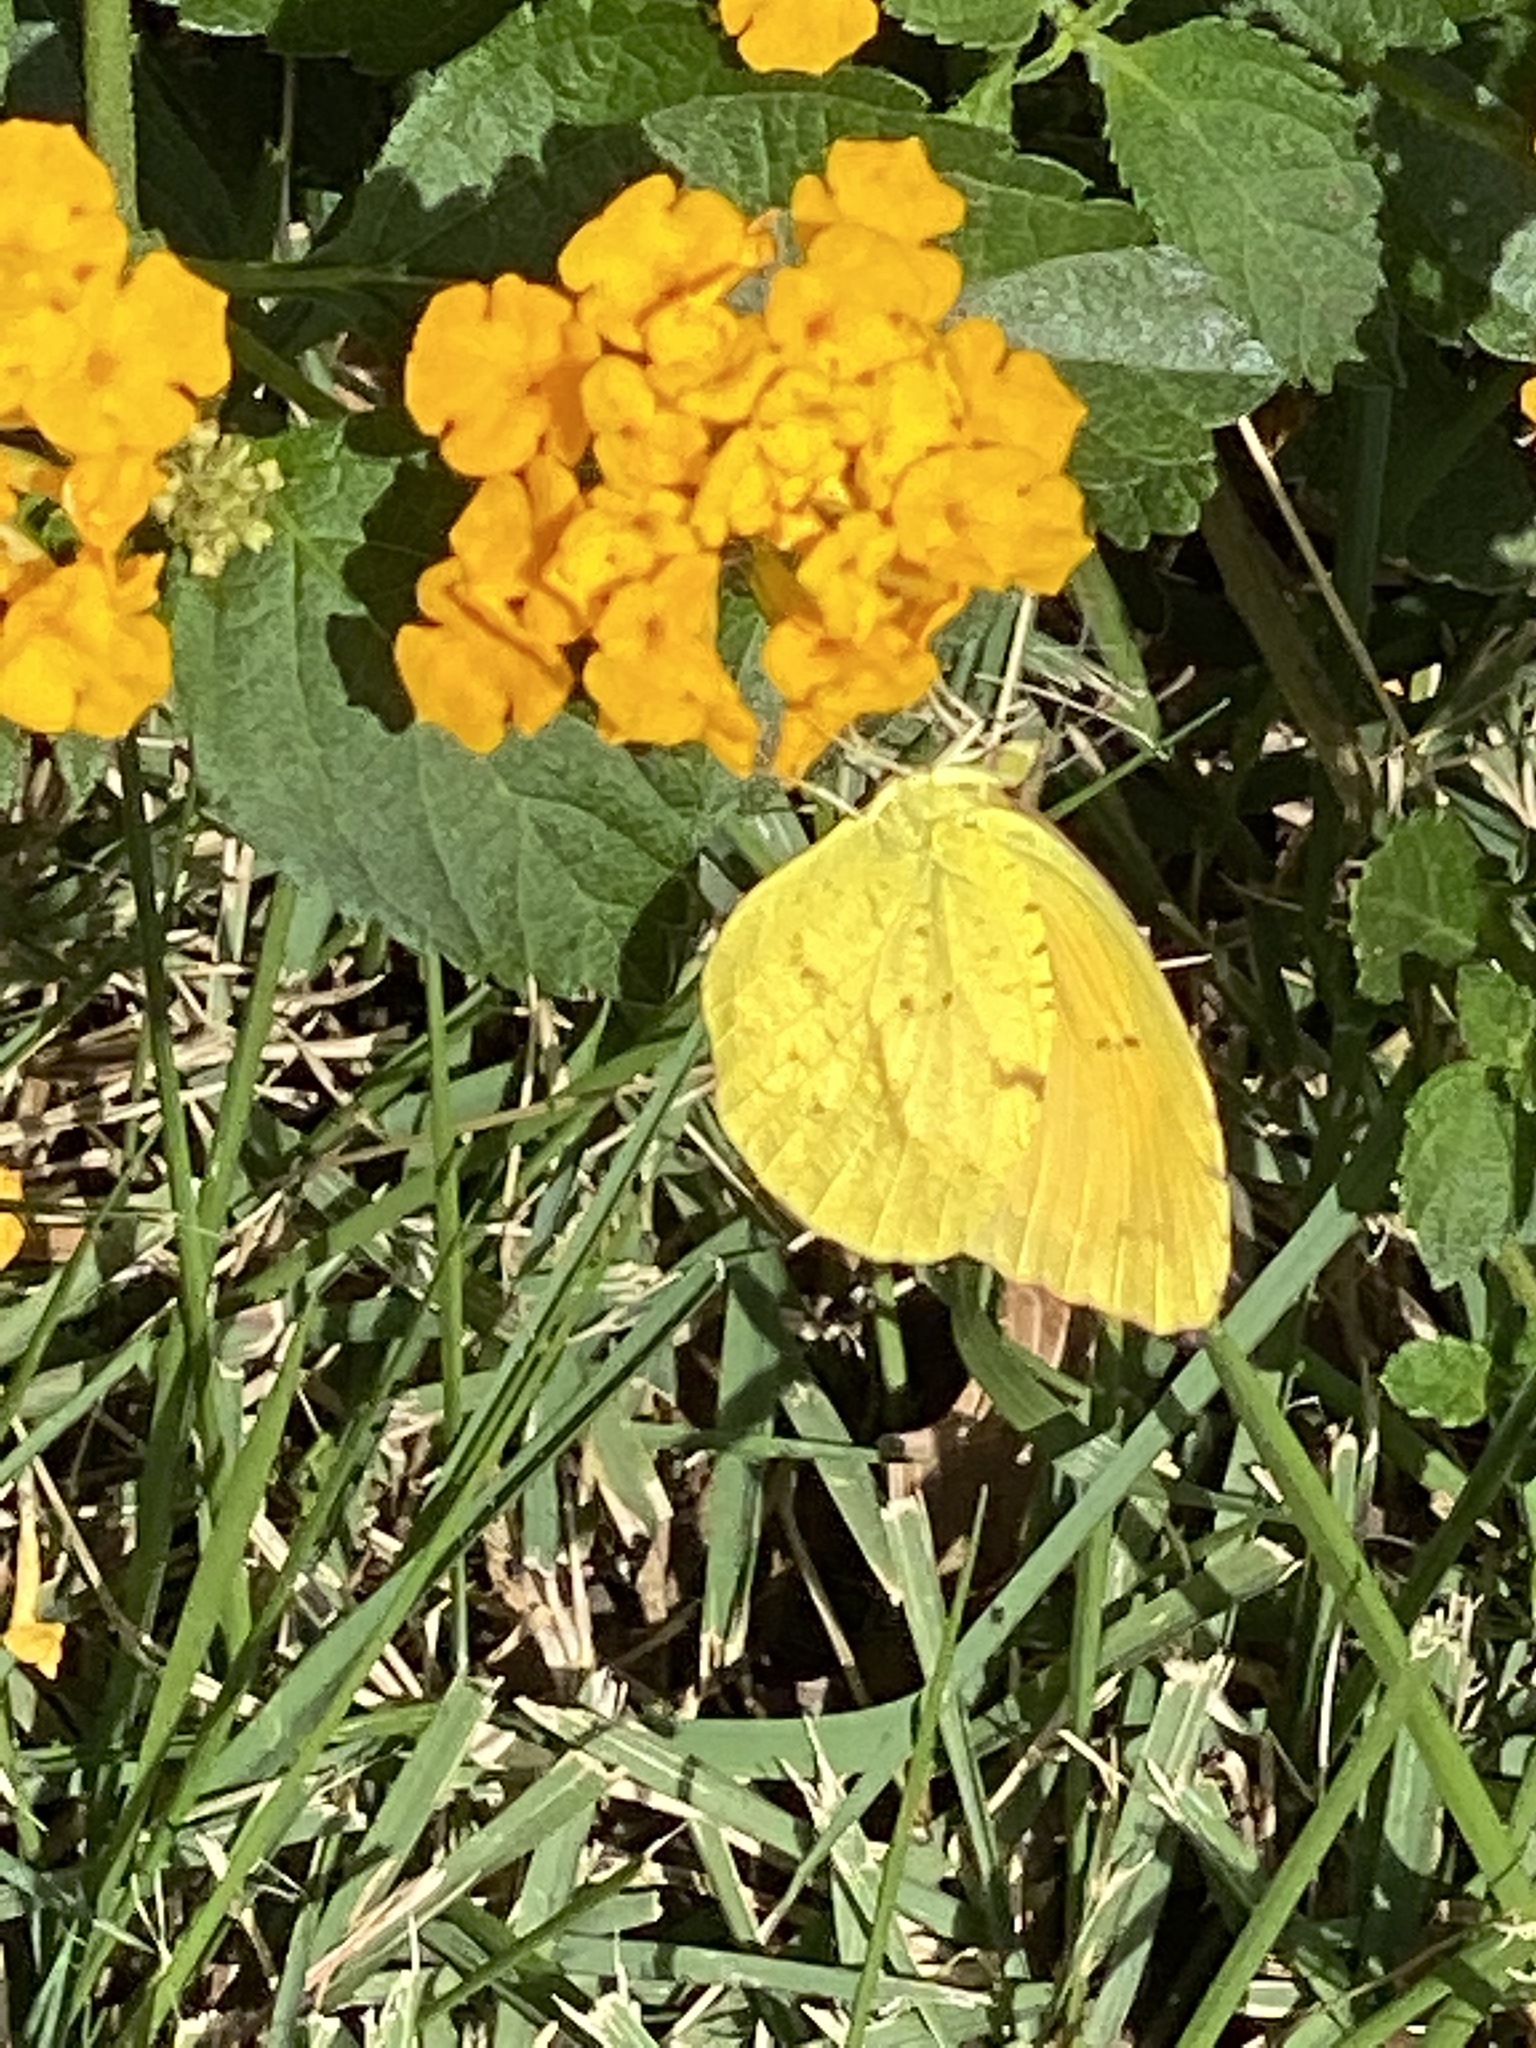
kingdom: Animalia
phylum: Arthropoda
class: Insecta
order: Lepidoptera
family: Pieridae
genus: Abaeis
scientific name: Abaeis nicippe
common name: Sleepy orange
